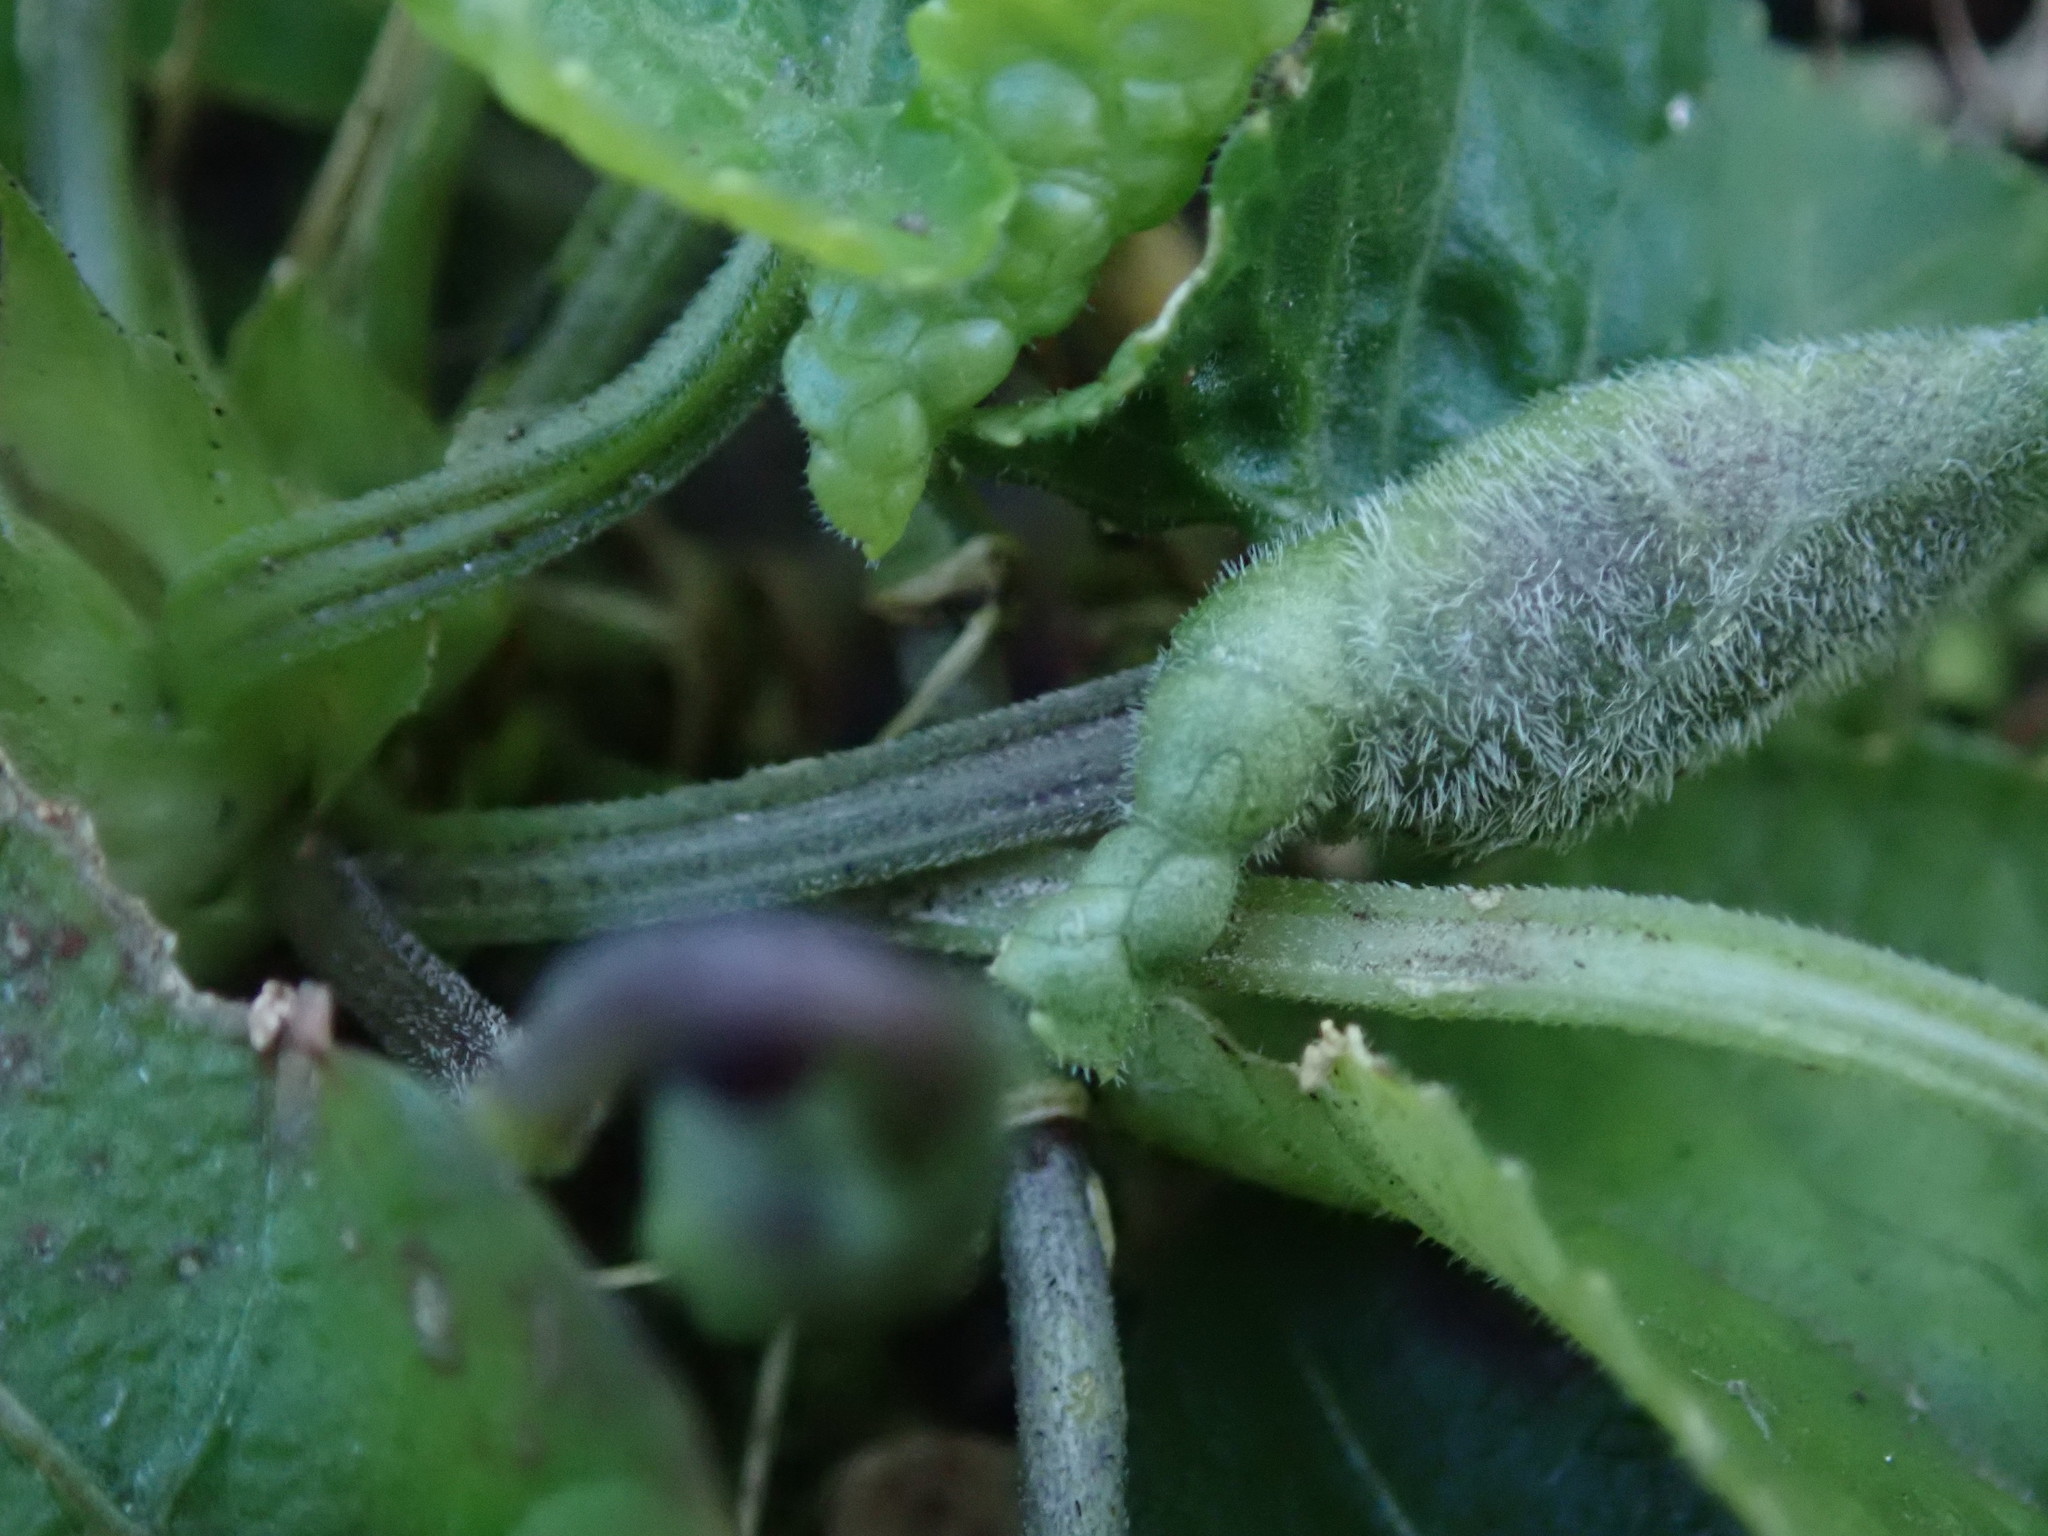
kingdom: Plantae
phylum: Tracheophyta
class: Magnoliopsida
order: Malpighiales
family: Violaceae
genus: Viola
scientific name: Viola odorata
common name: Sweet violet
